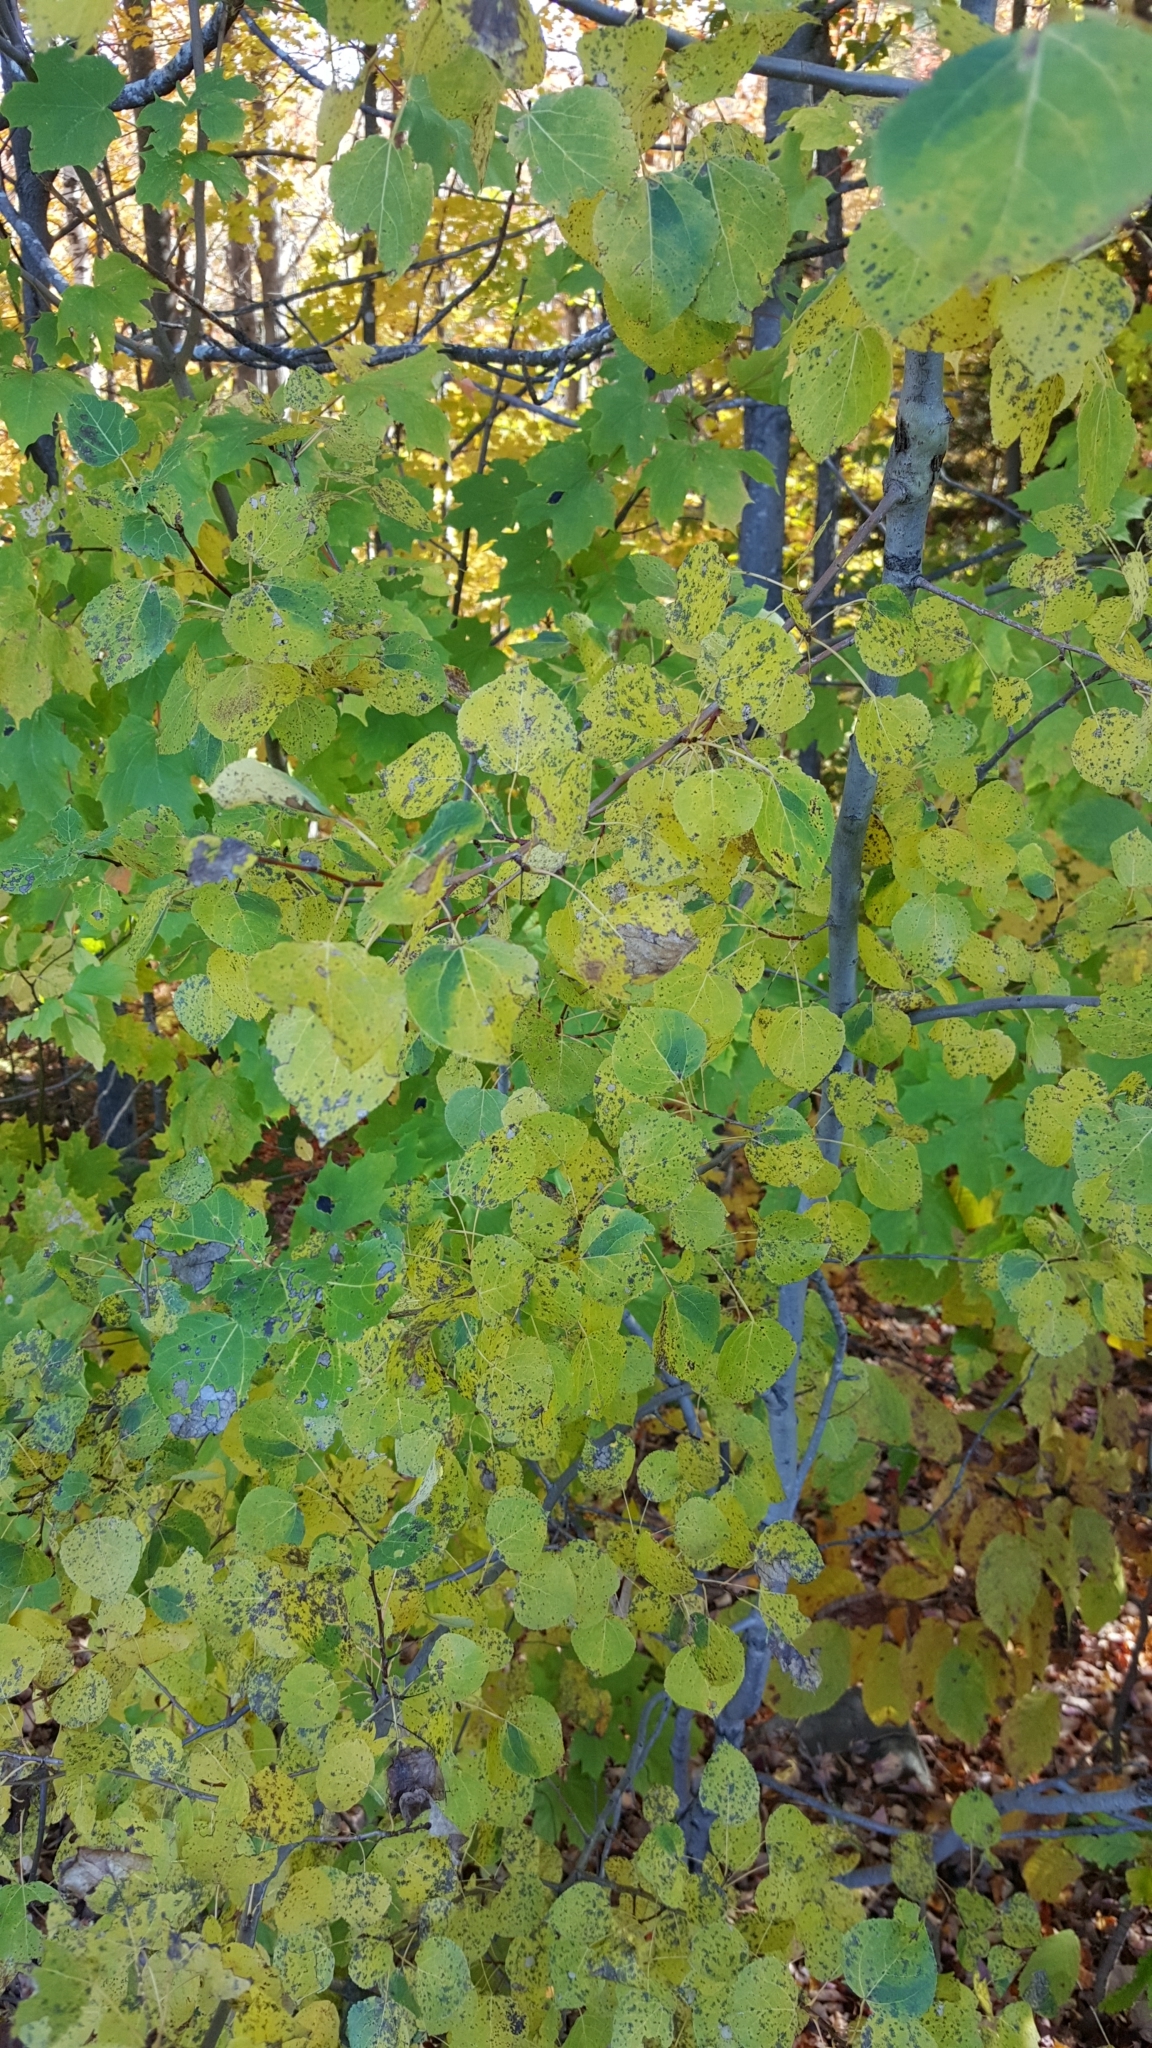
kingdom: Plantae
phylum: Tracheophyta
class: Magnoliopsida
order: Malpighiales
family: Salicaceae
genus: Populus
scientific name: Populus tremuloides
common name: Quaking aspen
